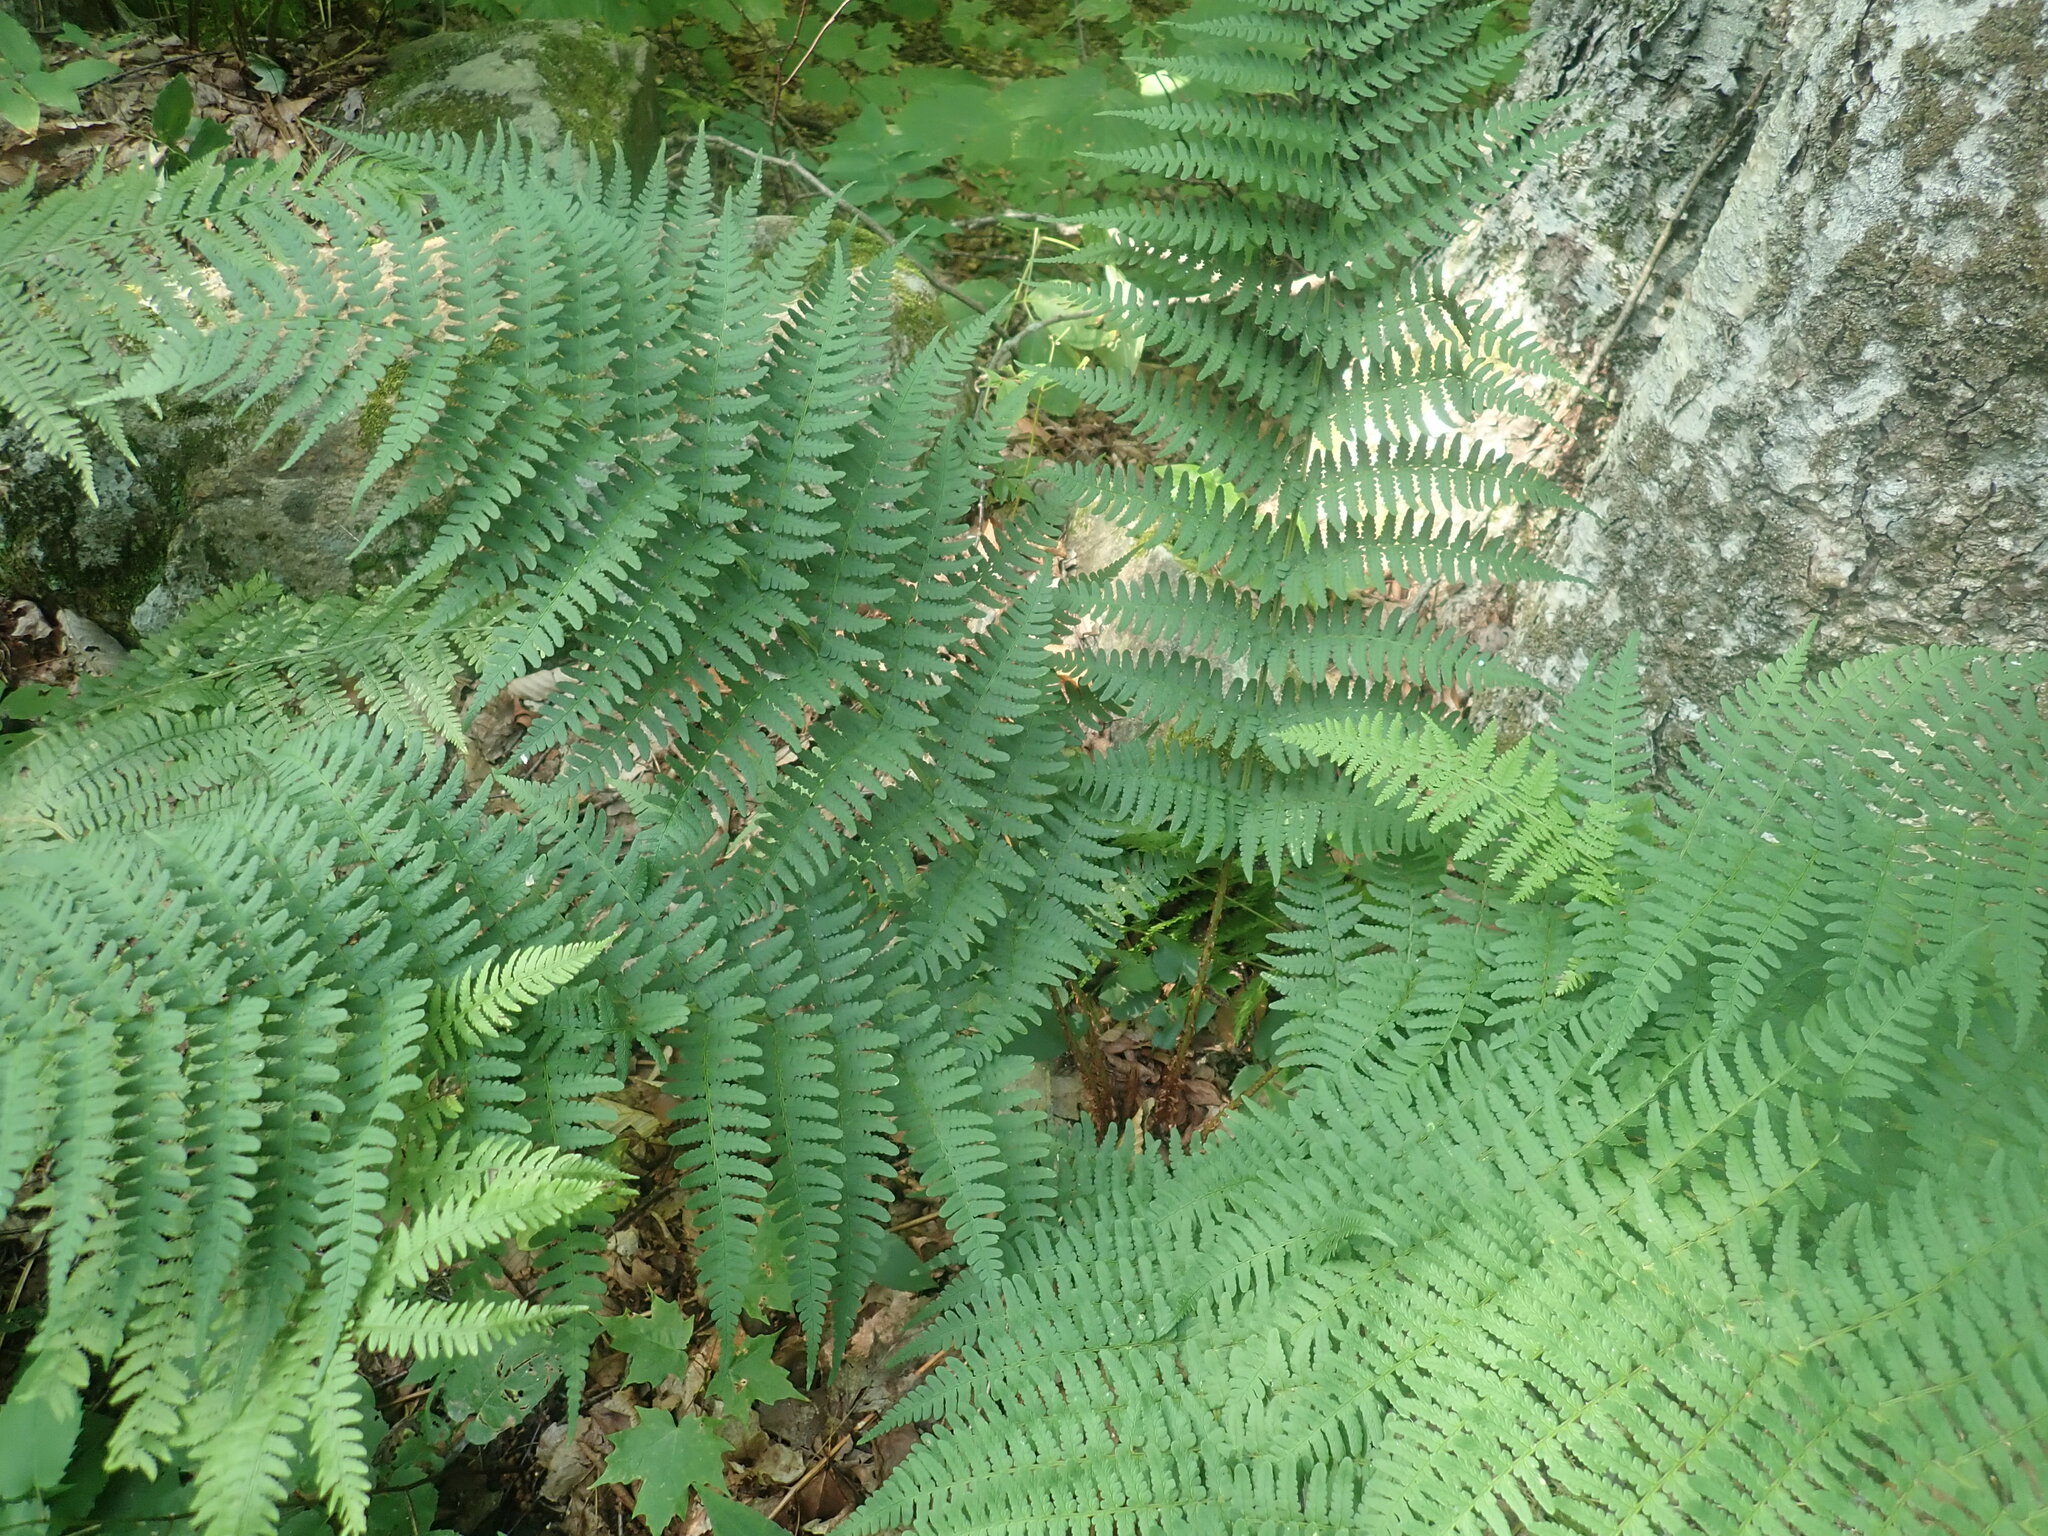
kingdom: Plantae
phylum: Tracheophyta
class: Polypodiopsida
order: Polypodiales
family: Dryopteridaceae
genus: Dryopteris
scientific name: Dryopteris marginalis
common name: Marginal wood fern
